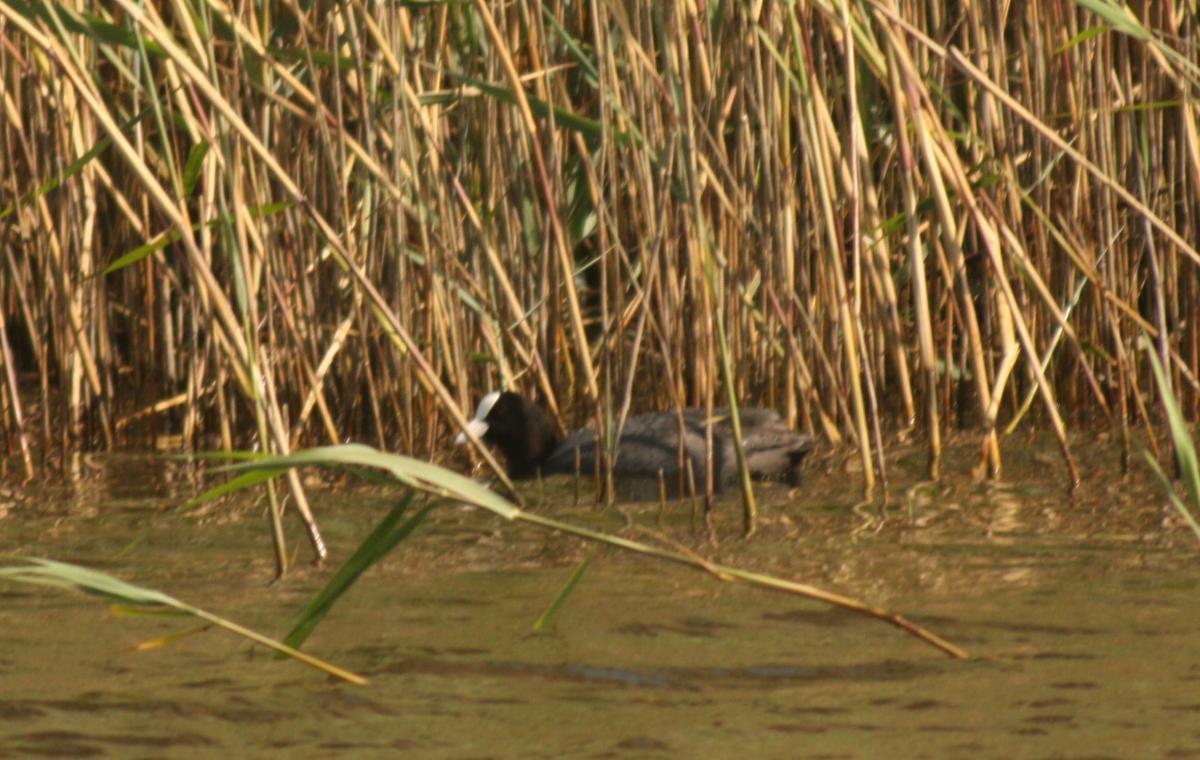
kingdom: Animalia
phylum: Chordata
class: Aves
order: Gruiformes
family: Rallidae
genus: Fulica
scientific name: Fulica atra
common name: Eurasian coot
